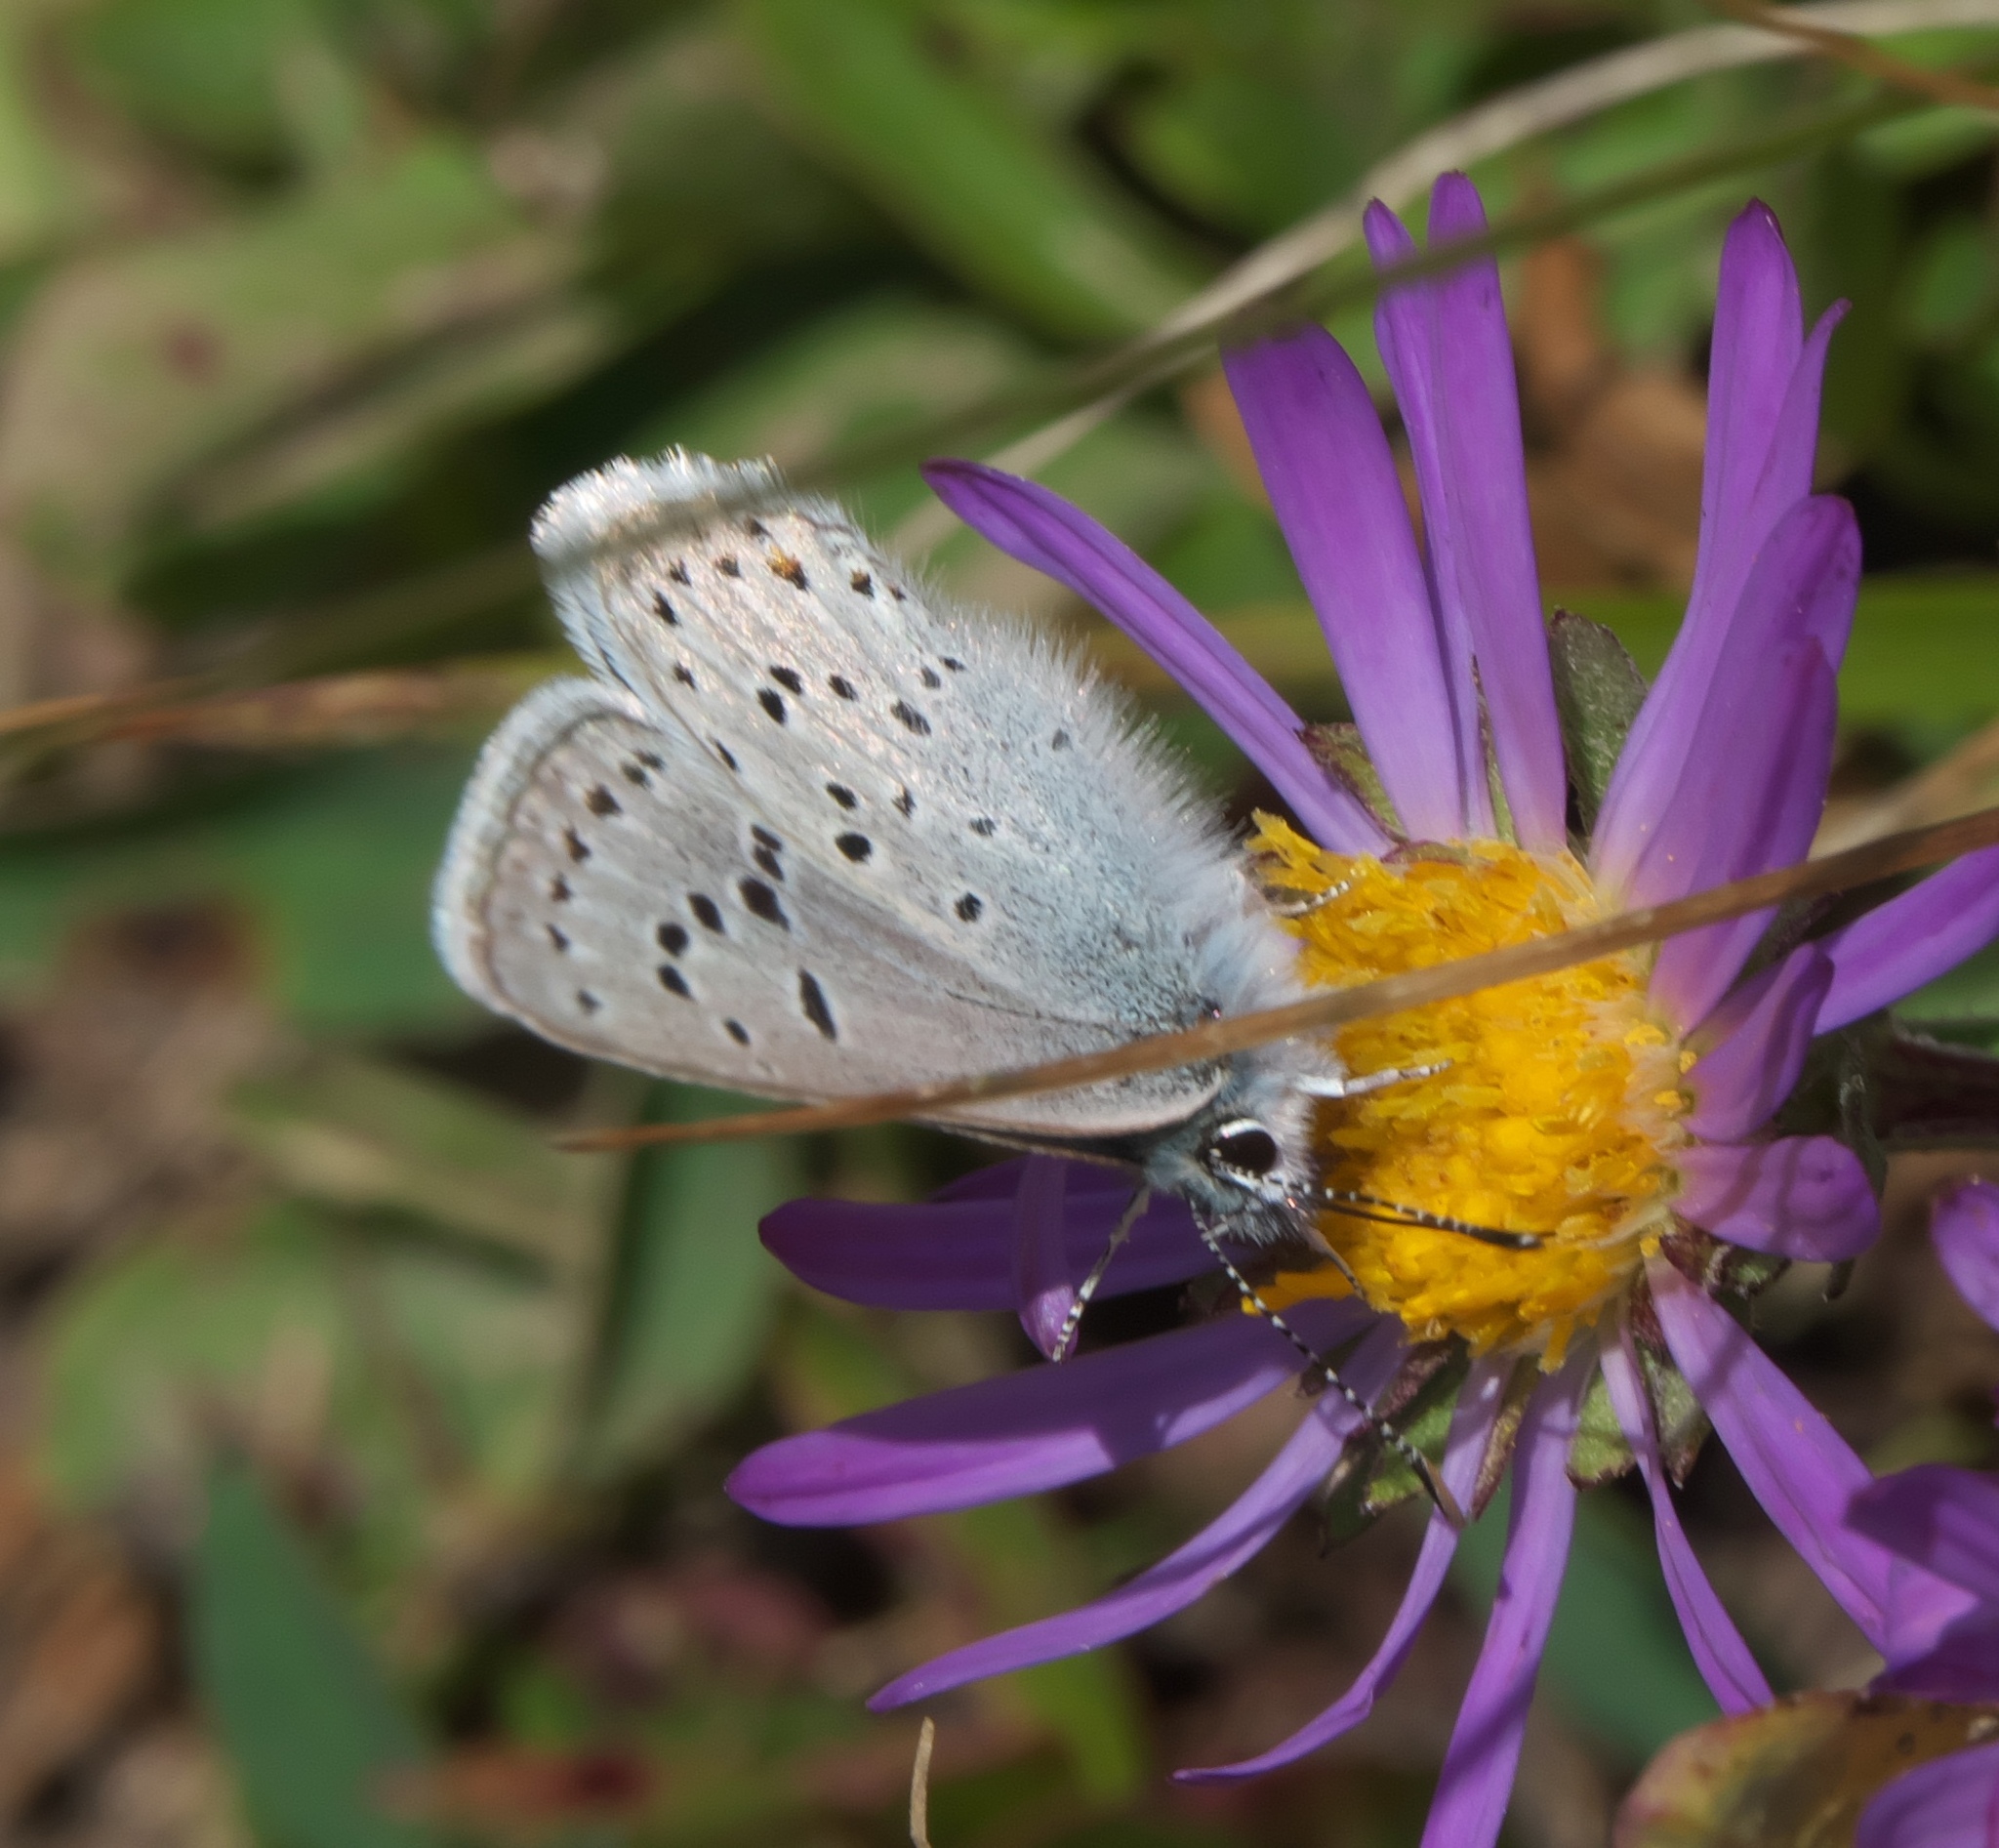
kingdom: Animalia
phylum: Arthropoda
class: Insecta
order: Lepidoptera
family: Lycaenidae
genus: Icaricia
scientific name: Icaricia saepiolus
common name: Greenish blue
